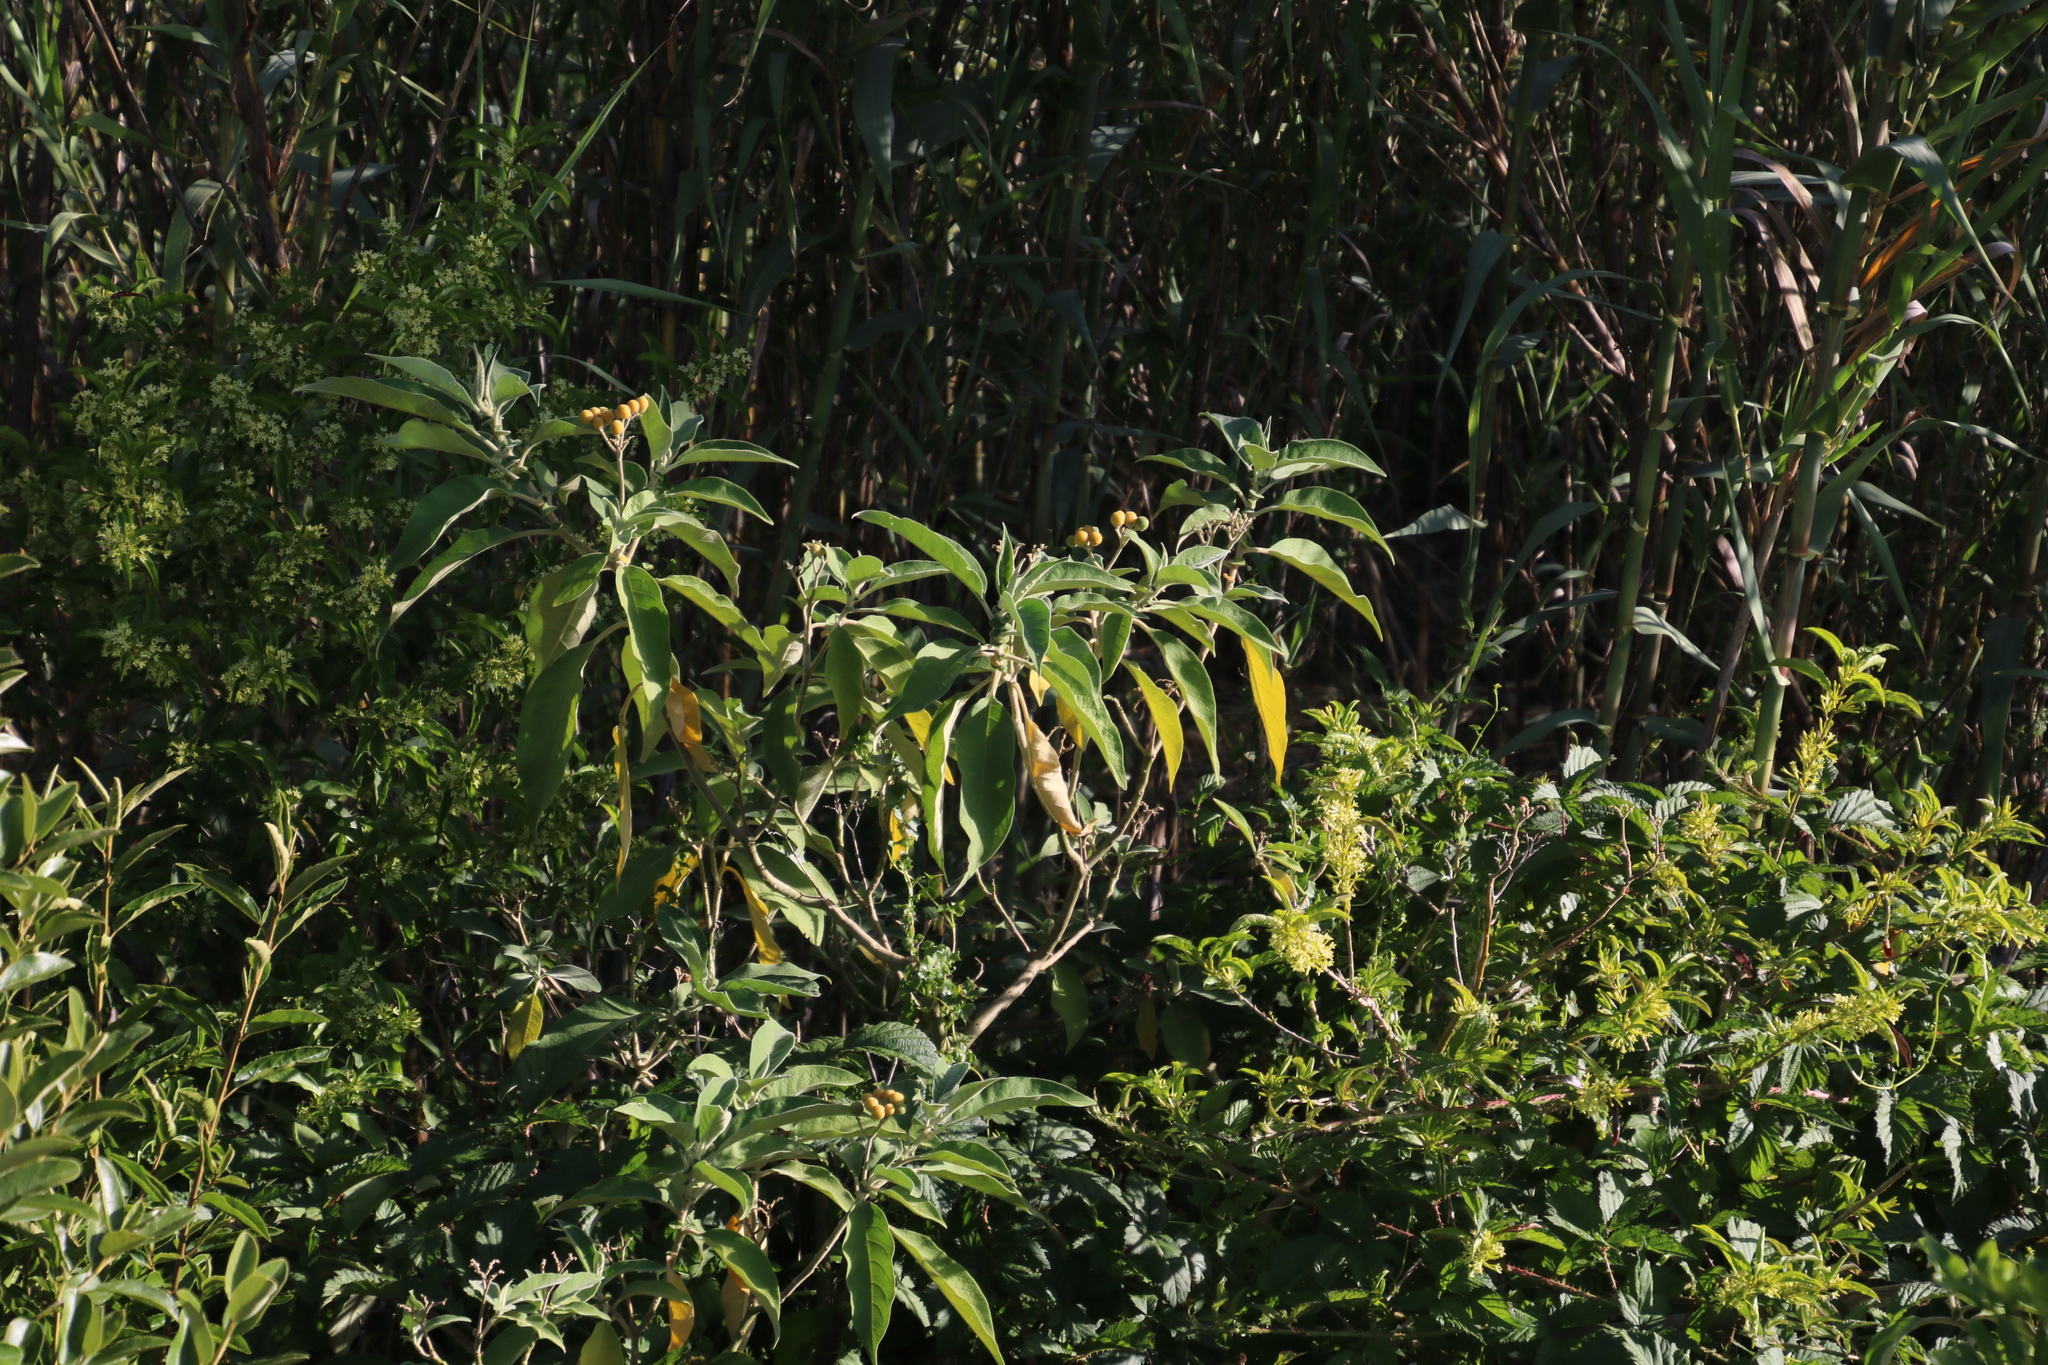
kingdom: Plantae
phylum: Tracheophyta
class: Magnoliopsida
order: Solanales
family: Solanaceae
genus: Solanum
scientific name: Solanum mauritianum
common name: Earleaf nightshade
